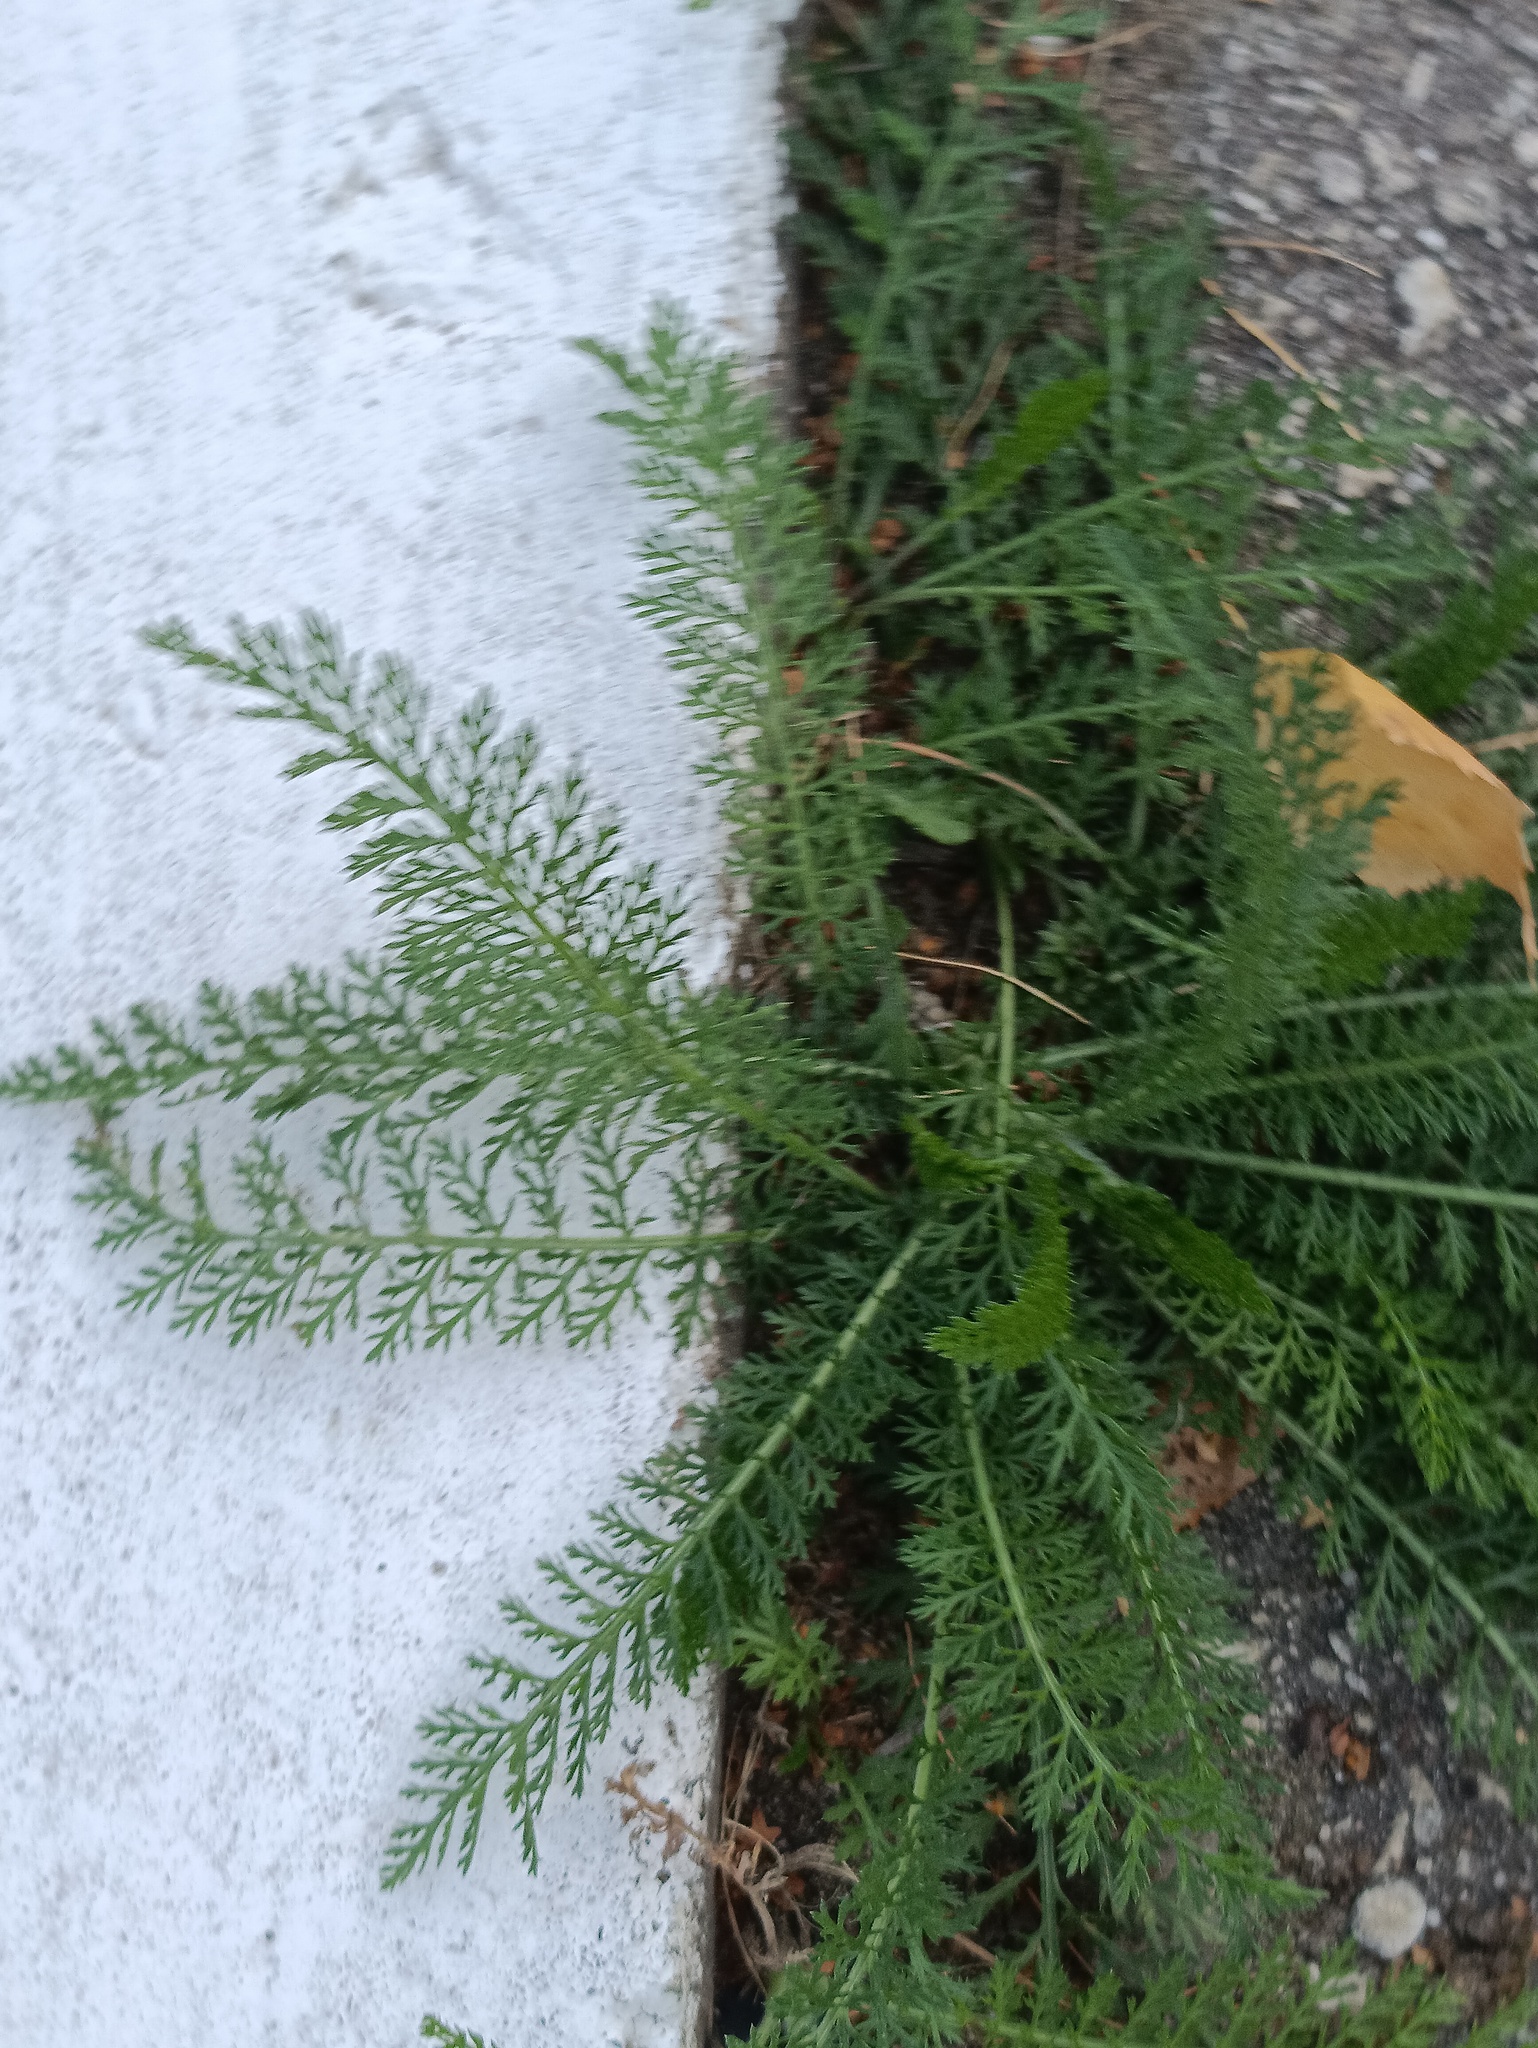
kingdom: Plantae
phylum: Tracheophyta
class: Magnoliopsida
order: Asterales
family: Asteraceae
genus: Achillea
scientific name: Achillea millefolium
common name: Yarrow
